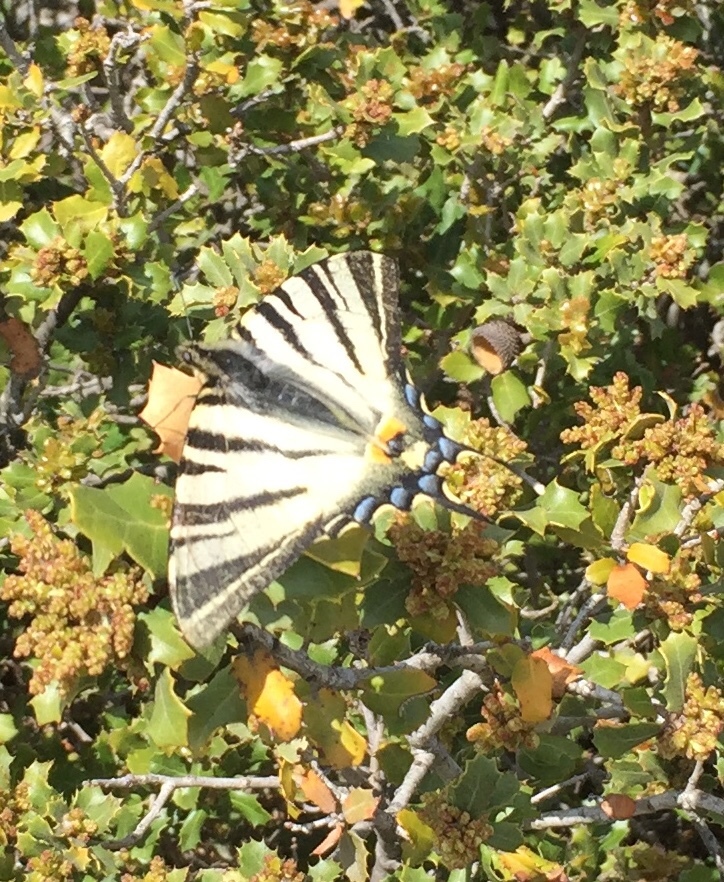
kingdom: Animalia
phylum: Arthropoda
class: Insecta
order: Lepidoptera
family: Papilionidae
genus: Iphiclides
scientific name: Iphiclides podalirius
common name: Scarce swallowtail
